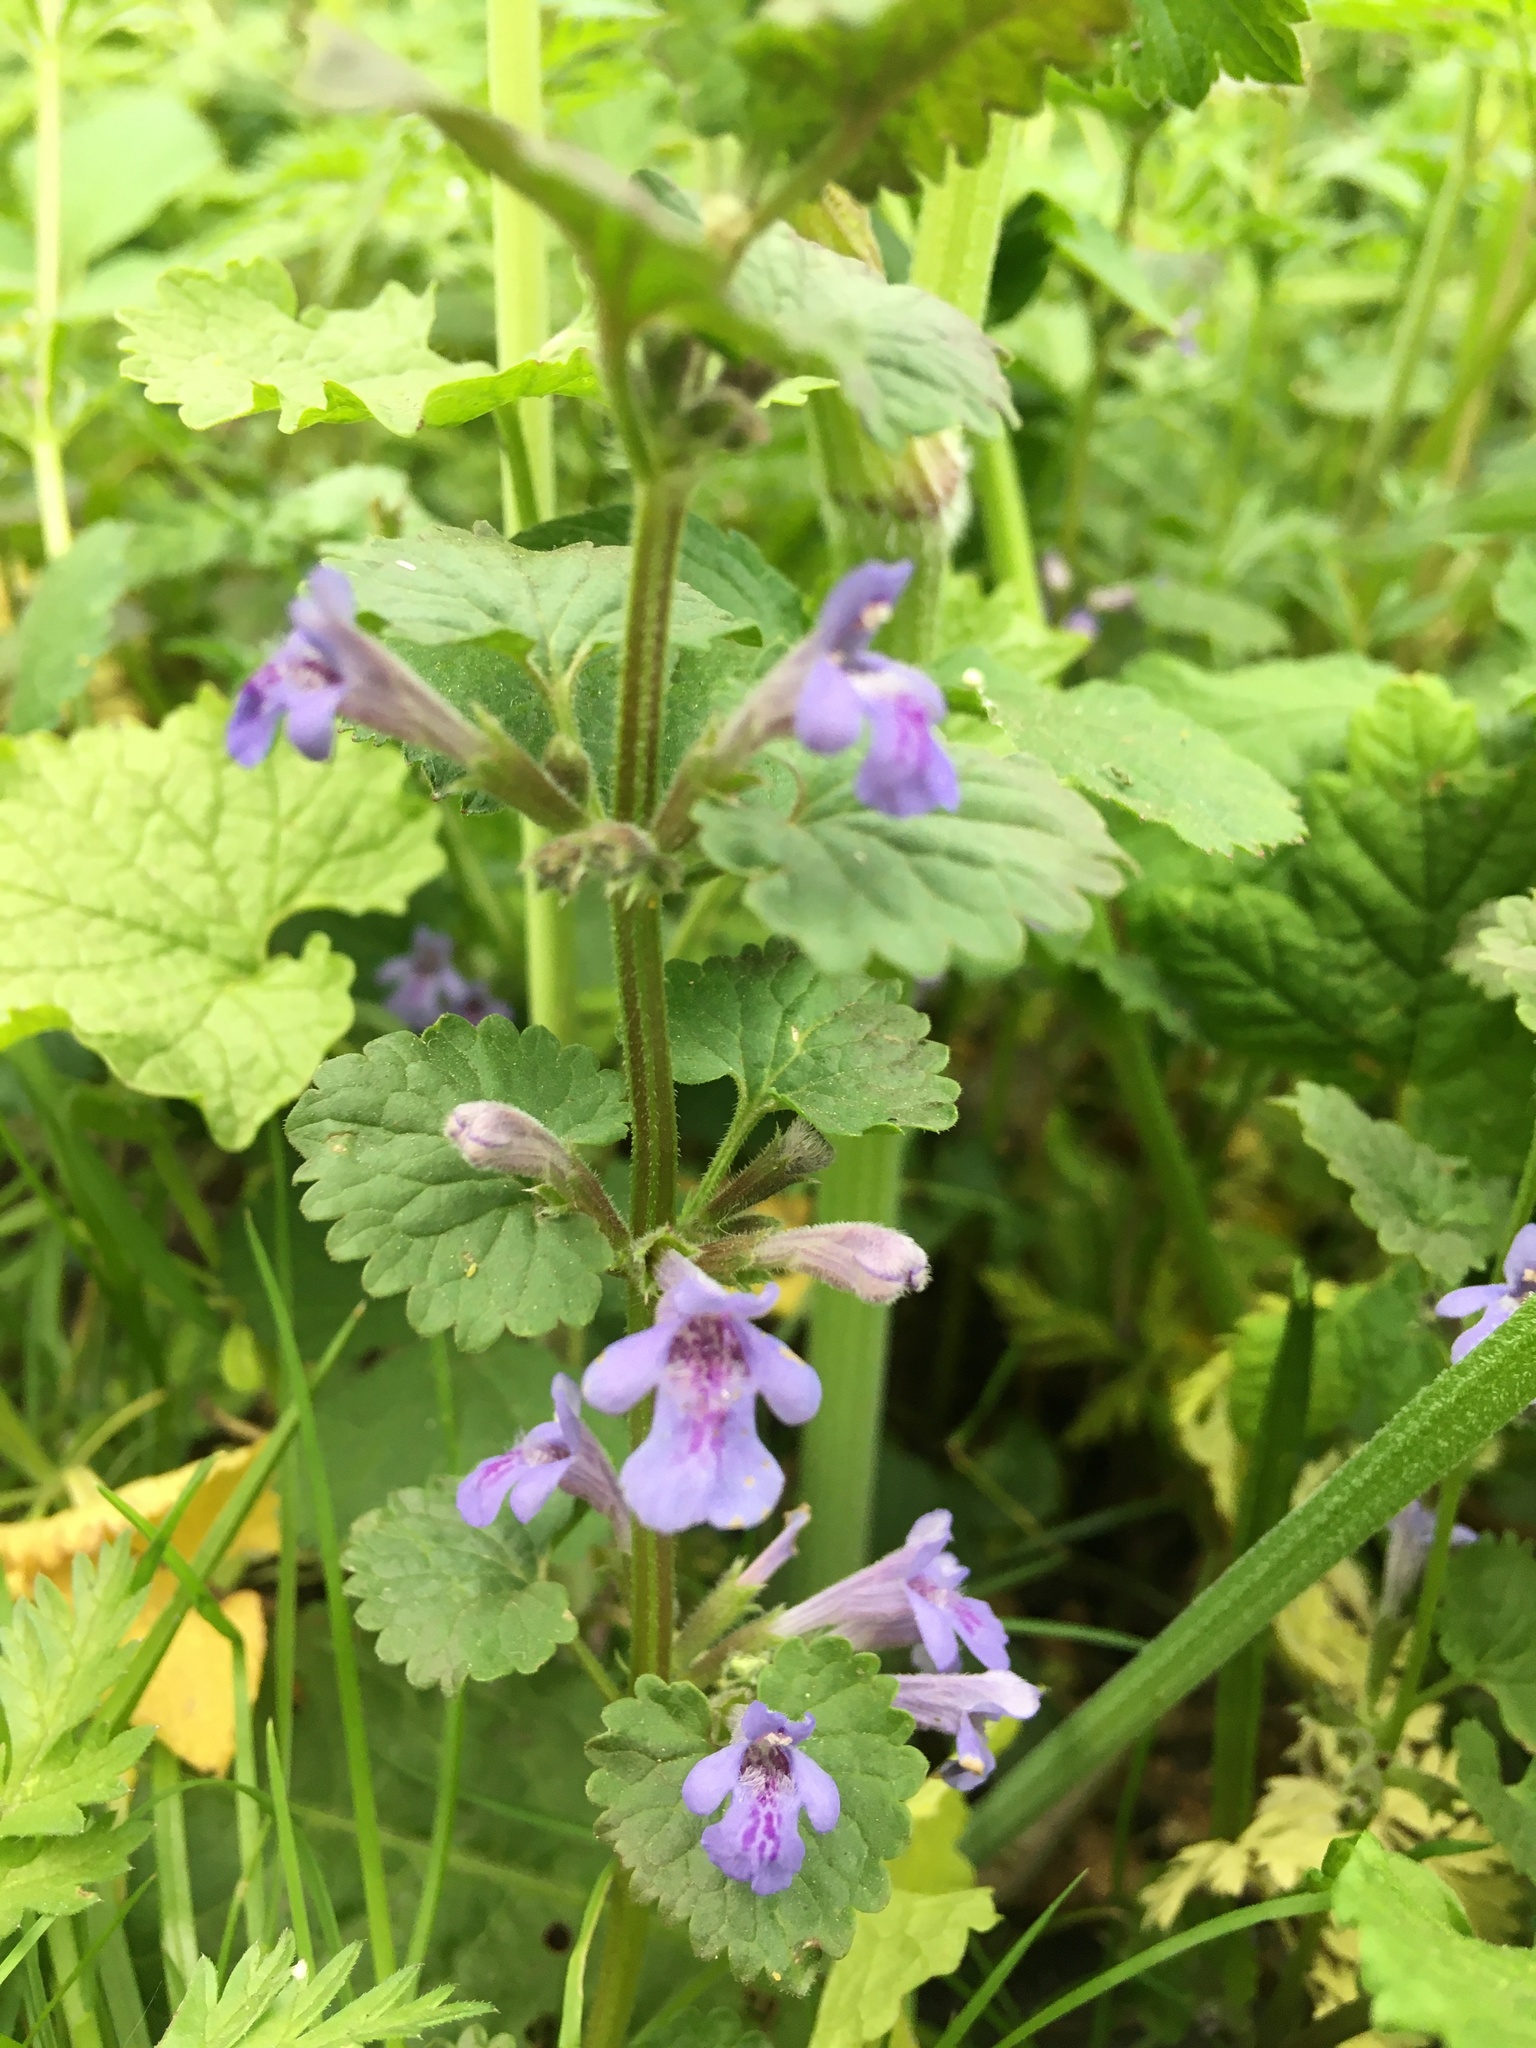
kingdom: Plantae
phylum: Tracheophyta
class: Magnoliopsida
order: Lamiales
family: Lamiaceae
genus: Glechoma
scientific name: Glechoma hederacea
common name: Ground ivy
